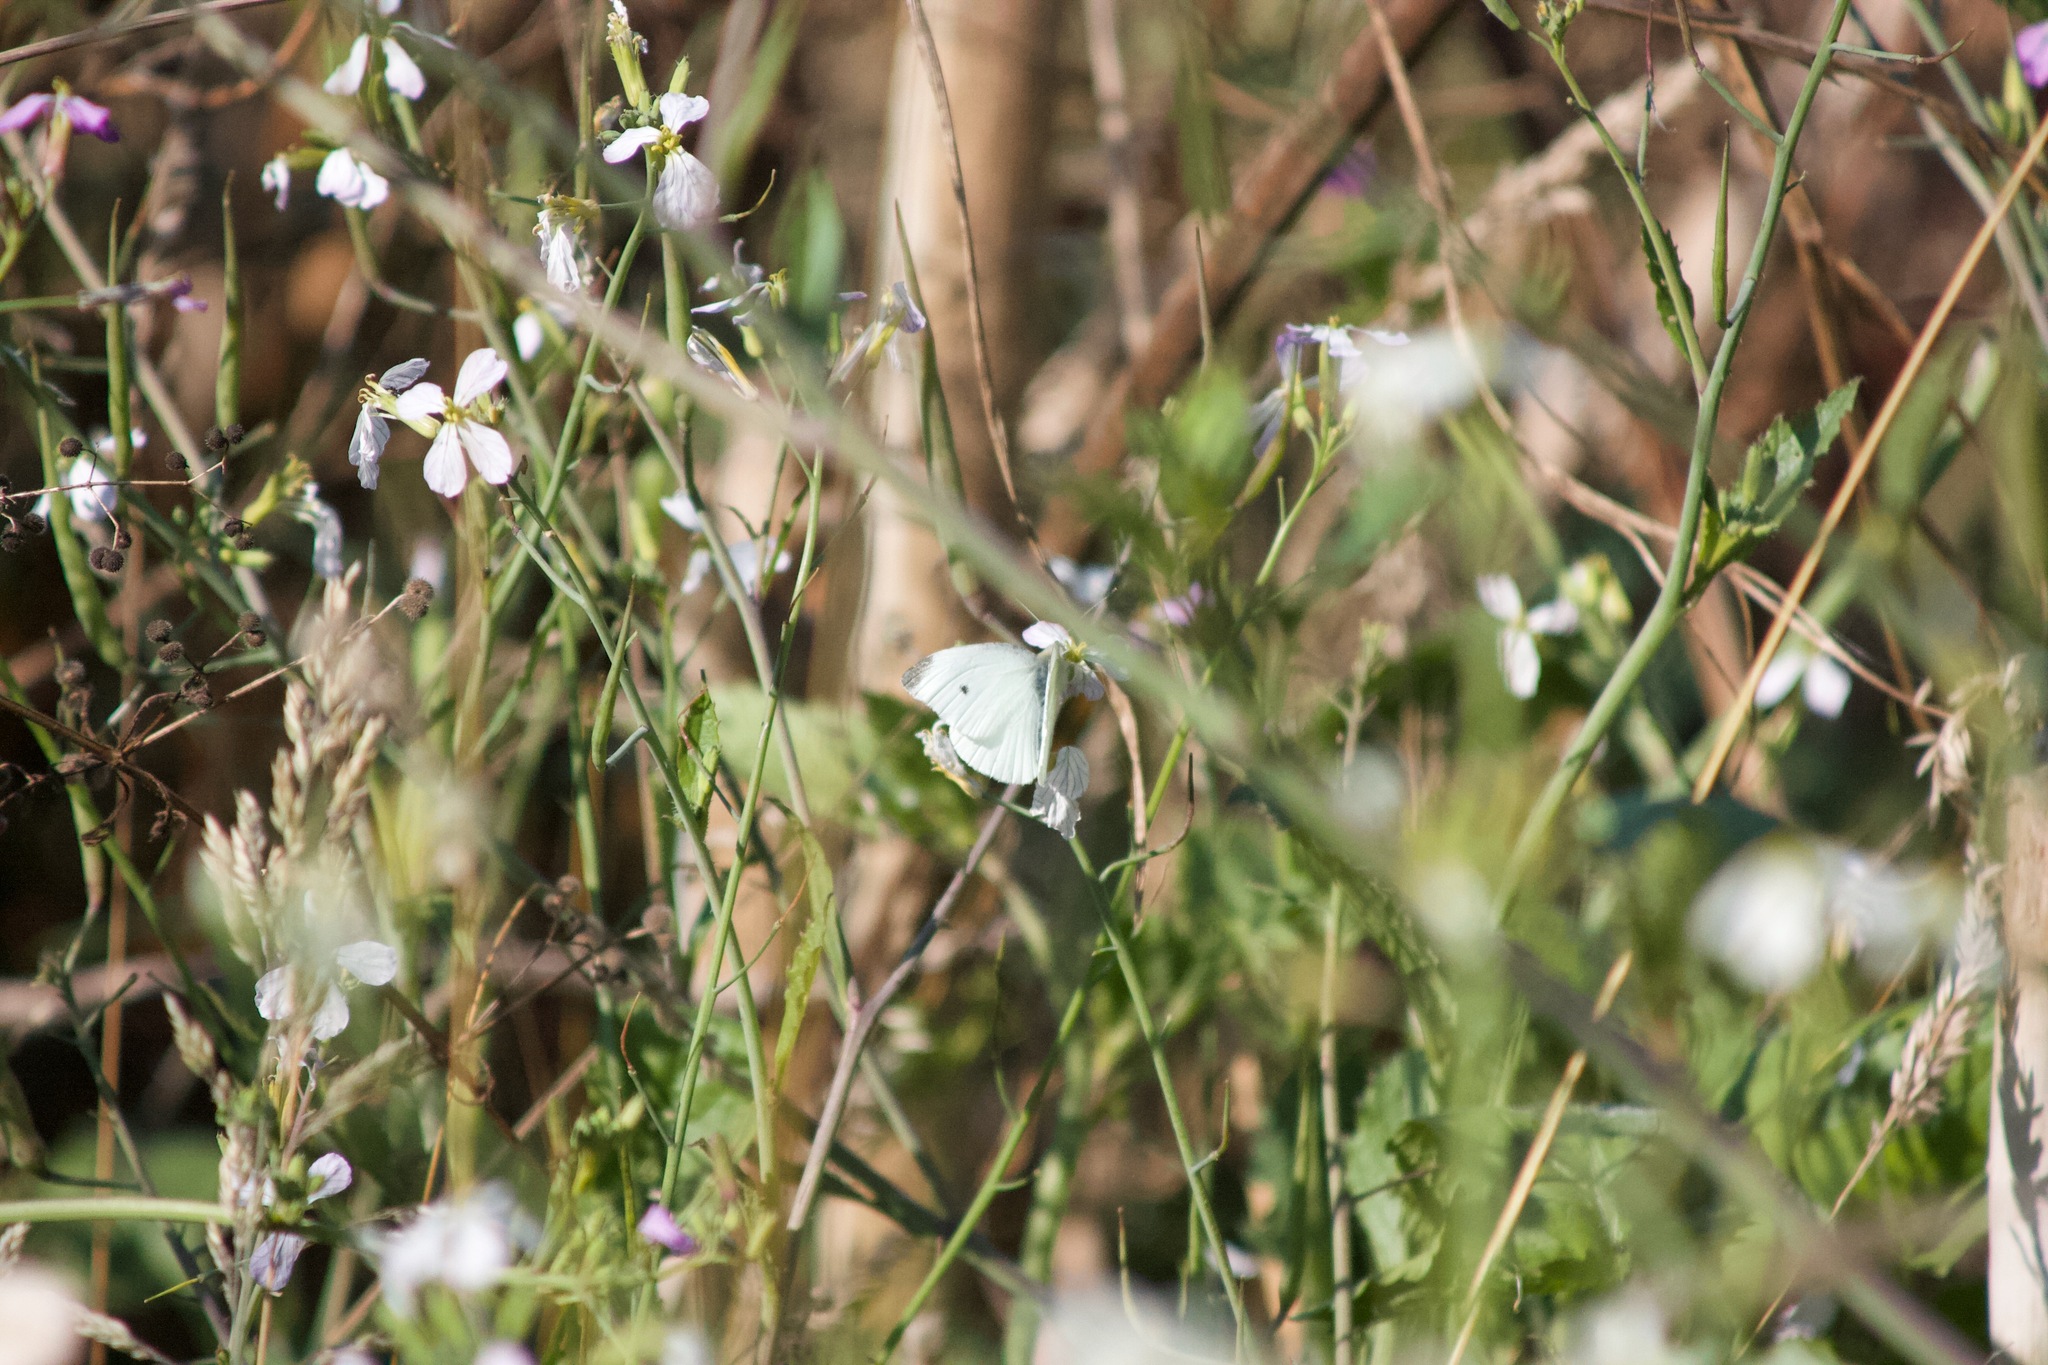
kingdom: Animalia
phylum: Arthropoda
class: Insecta
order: Lepidoptera
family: Pieridae
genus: Pieris
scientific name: Pieris rapae
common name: Small white
